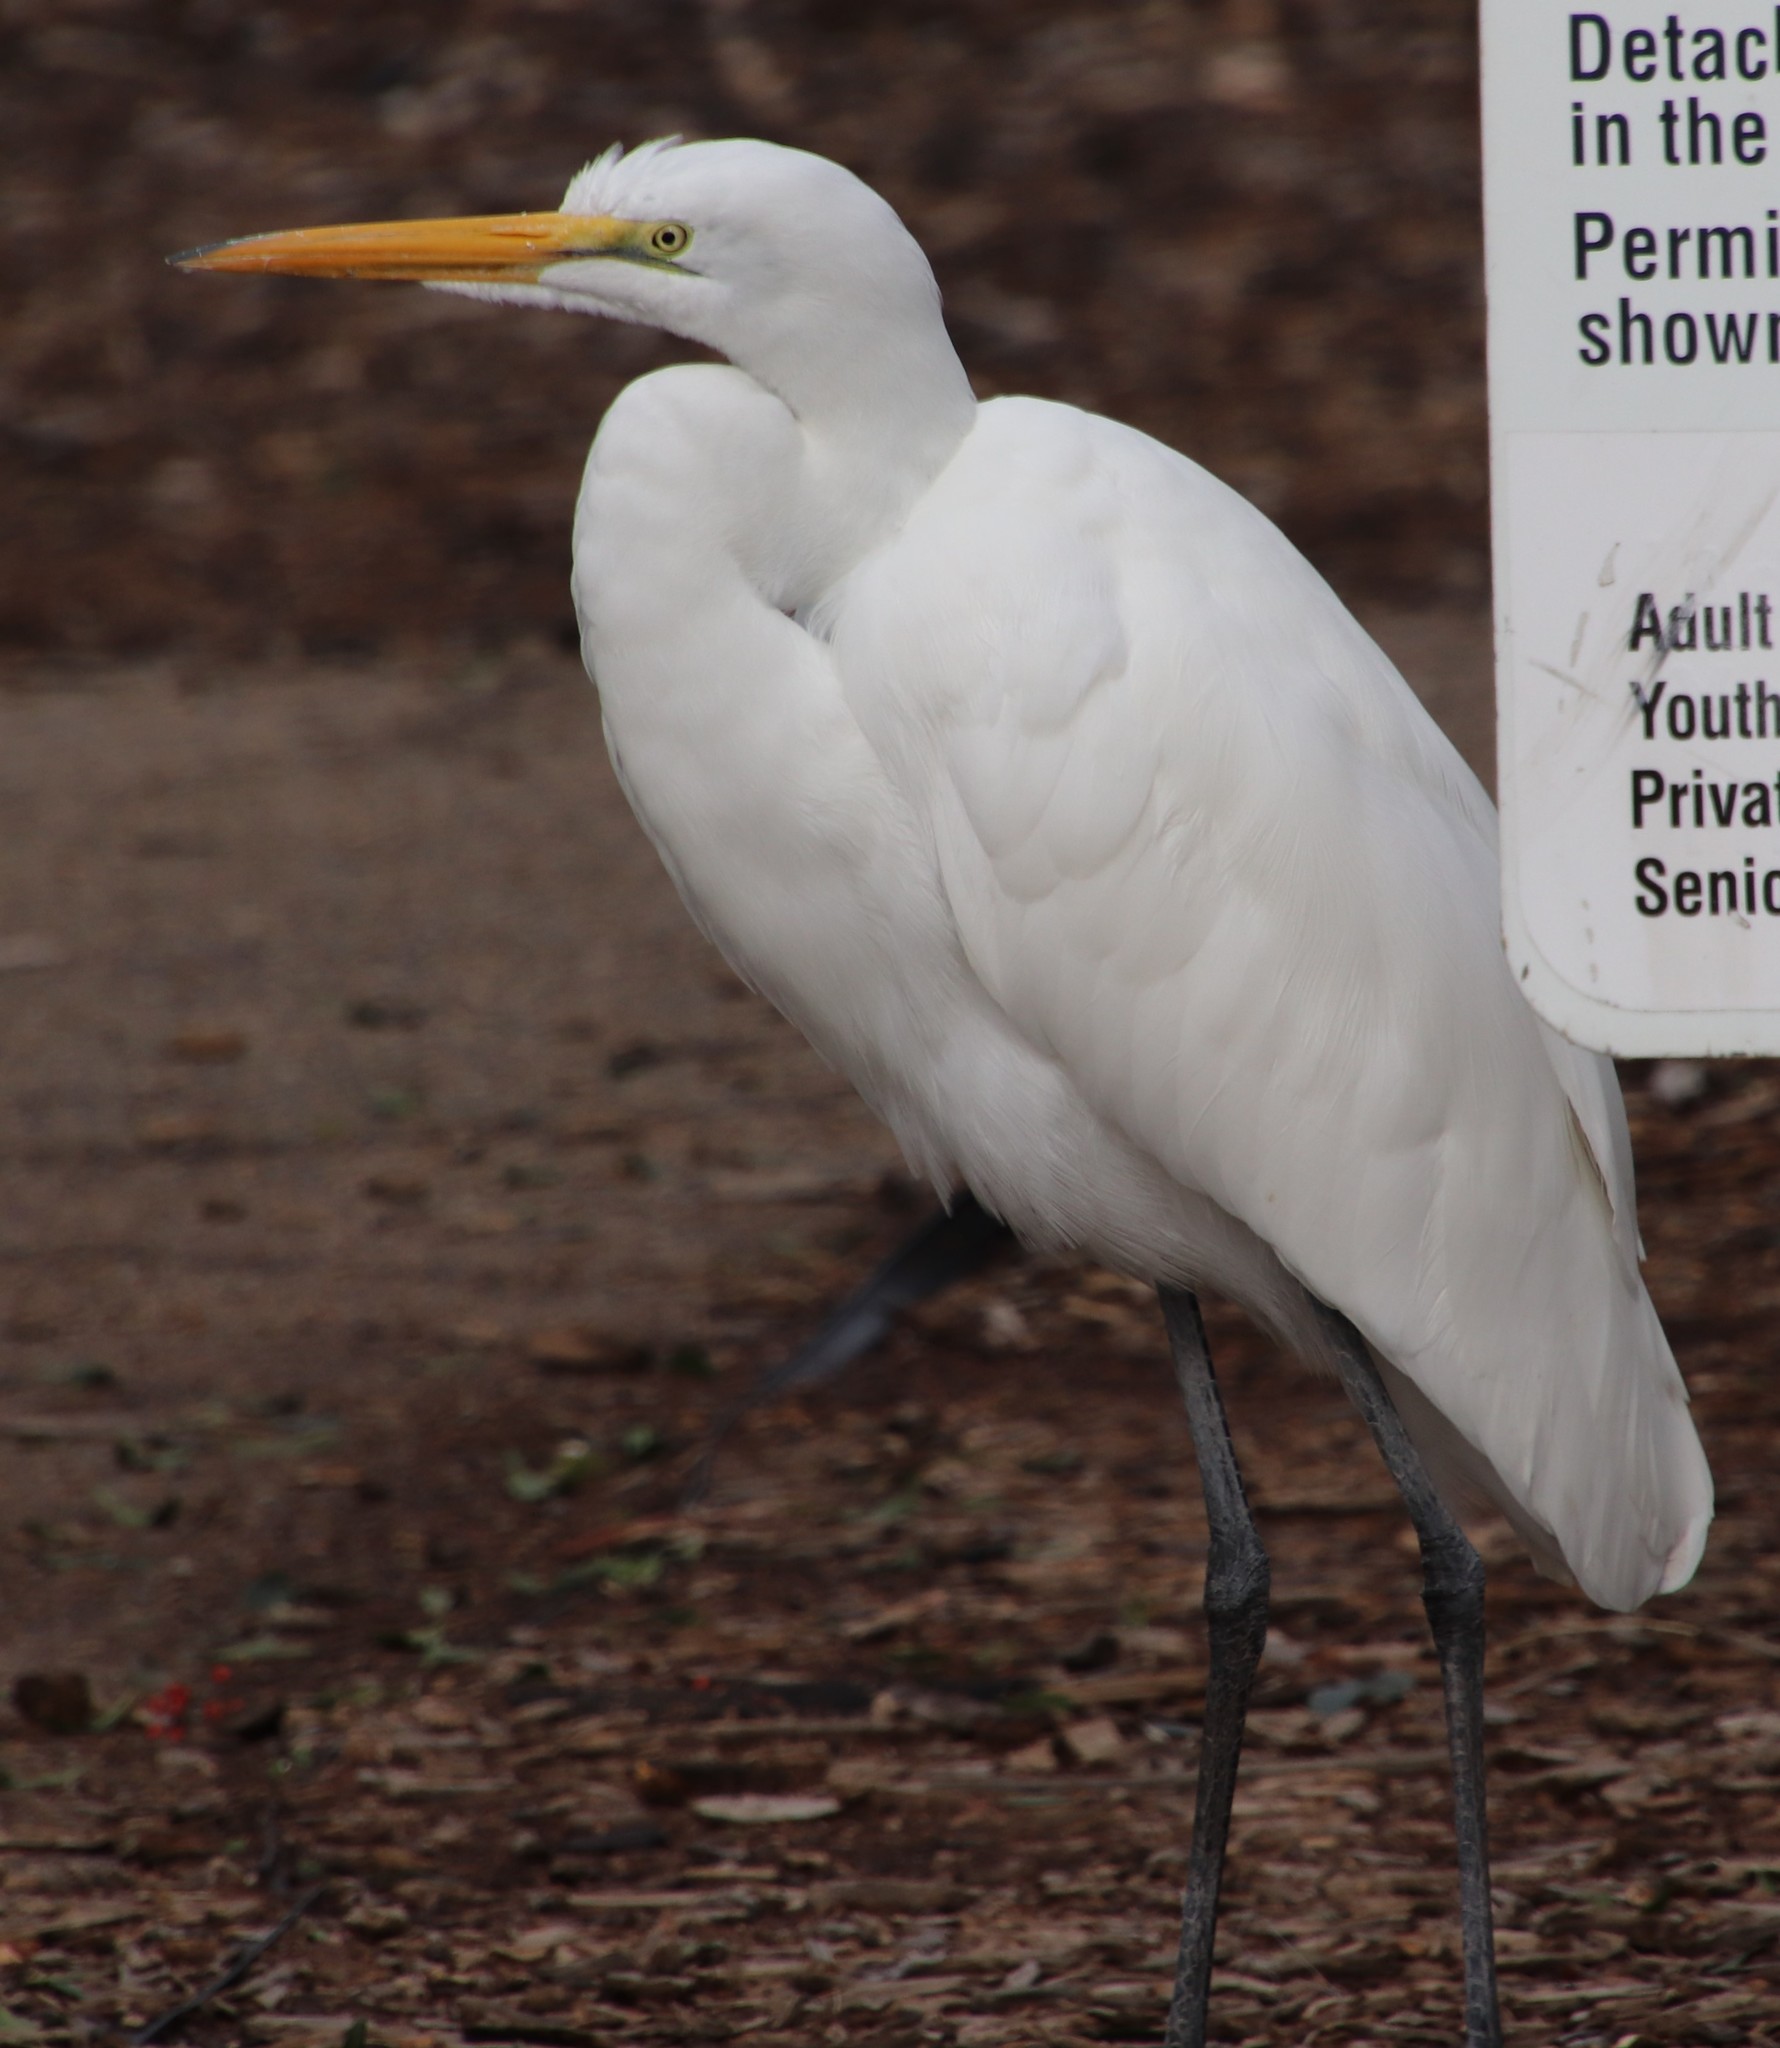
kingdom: Animalia
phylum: Chordata
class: Aves
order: Pelecaniformes
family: Ardeidae
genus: Ardea
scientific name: Ardea alba
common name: Great egret
